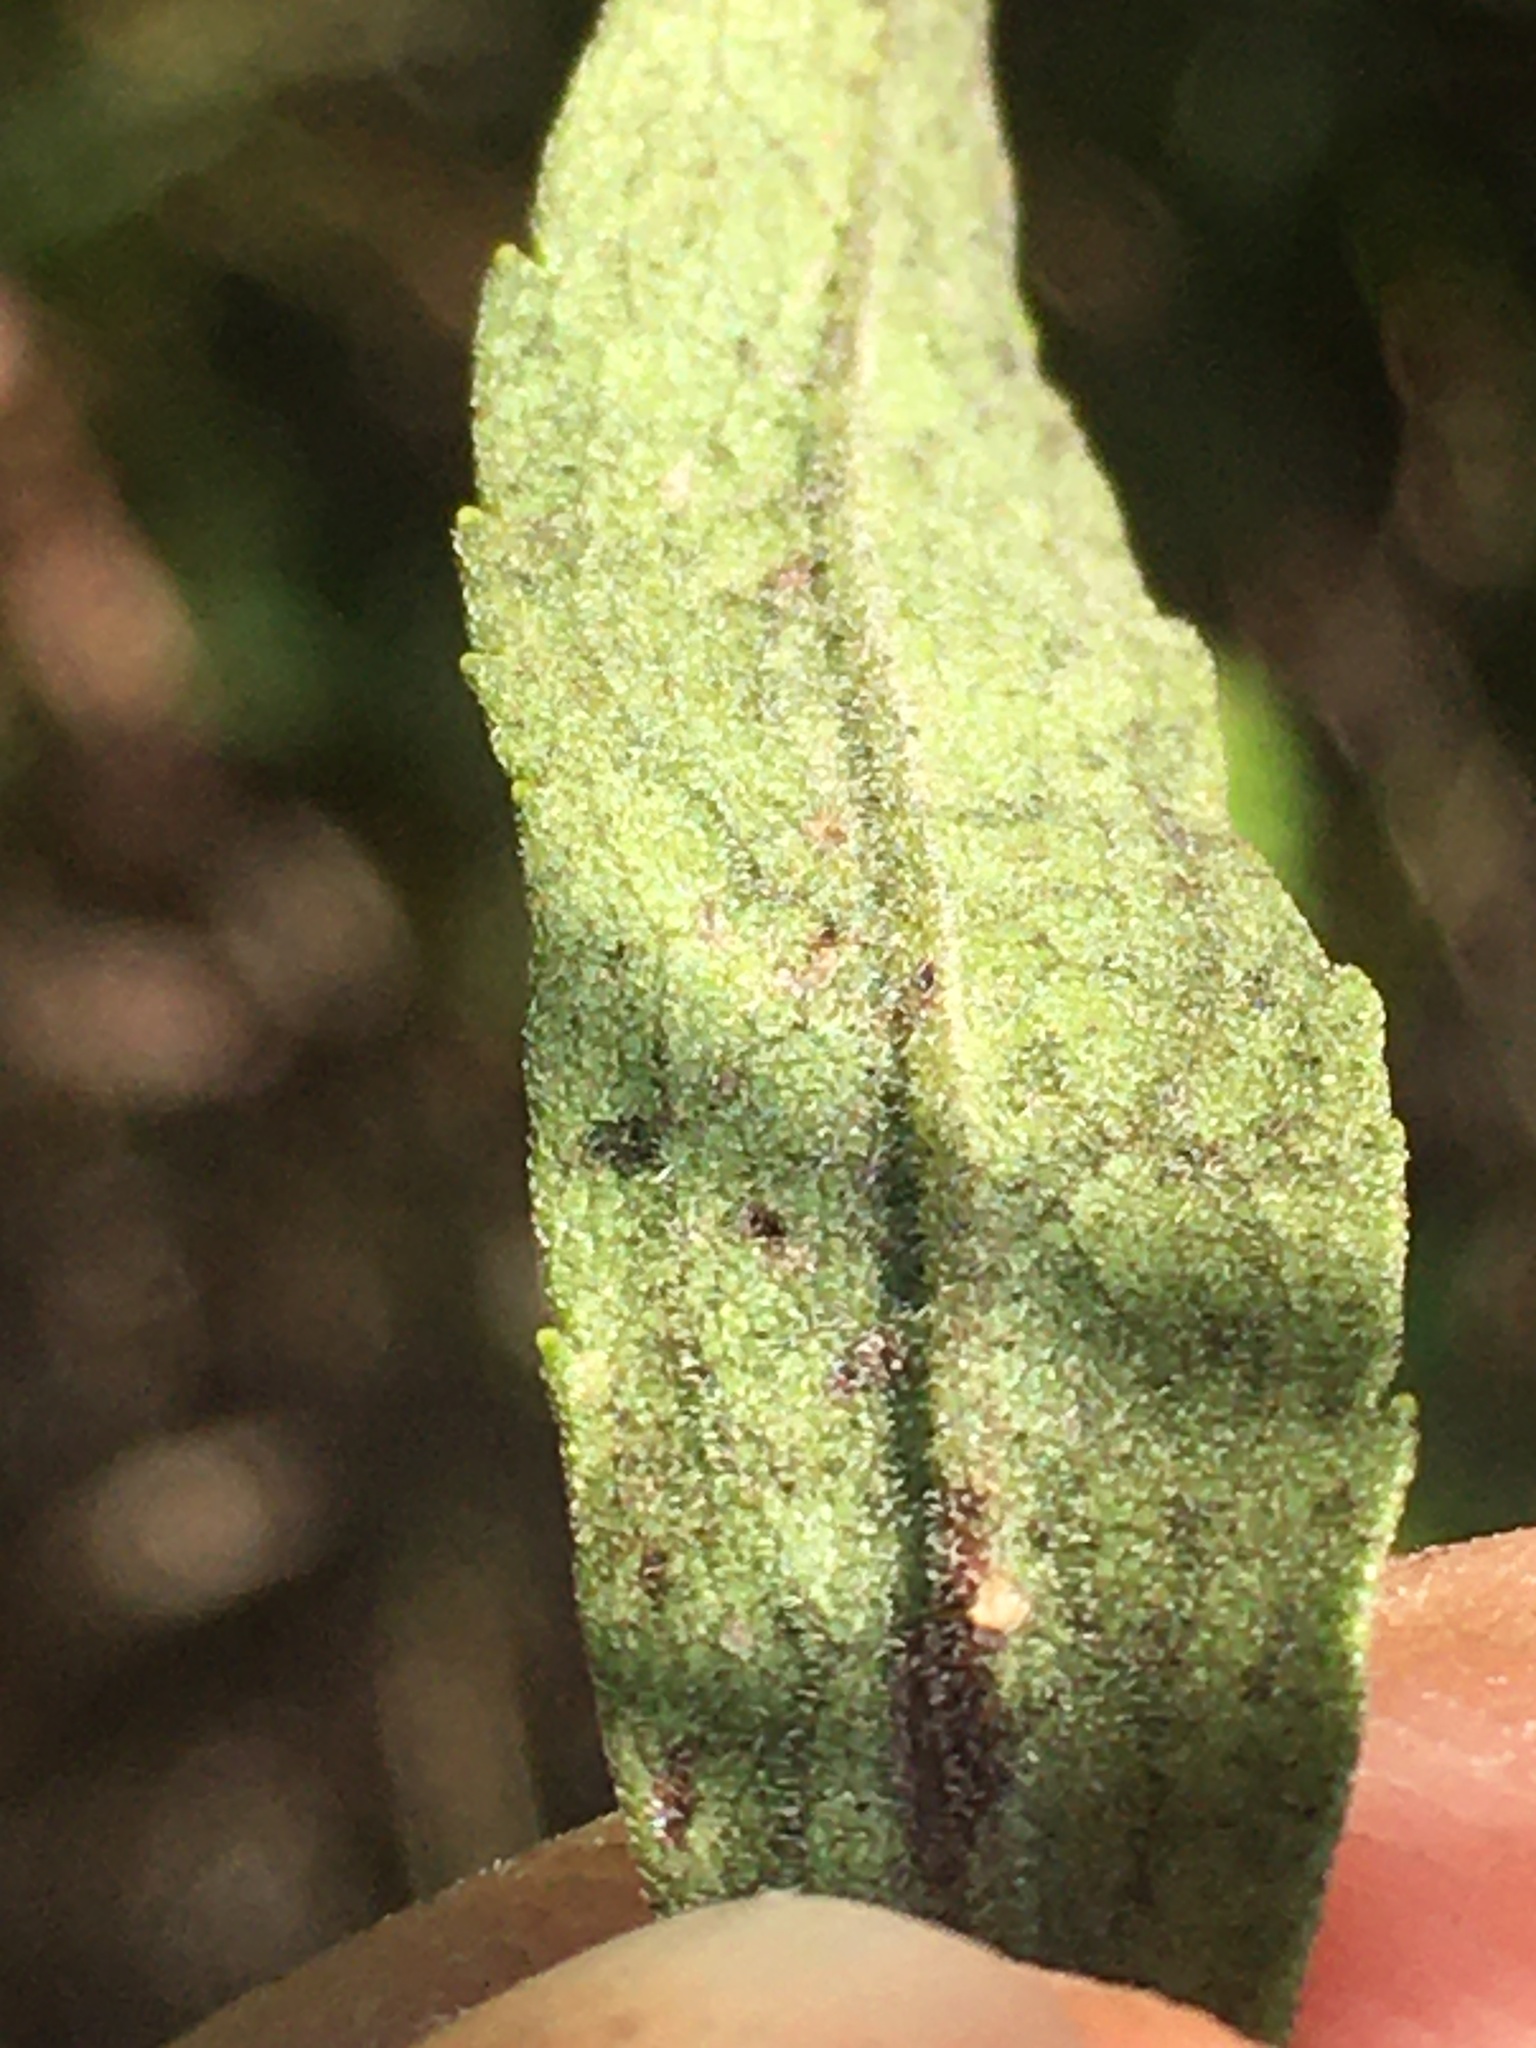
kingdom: Plantae
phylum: Tracheophyta
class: Magnoliopsida
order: Asterales
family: Asteraceae
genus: Solidago
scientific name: Solidago nemoralis
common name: Grey goldenrod
